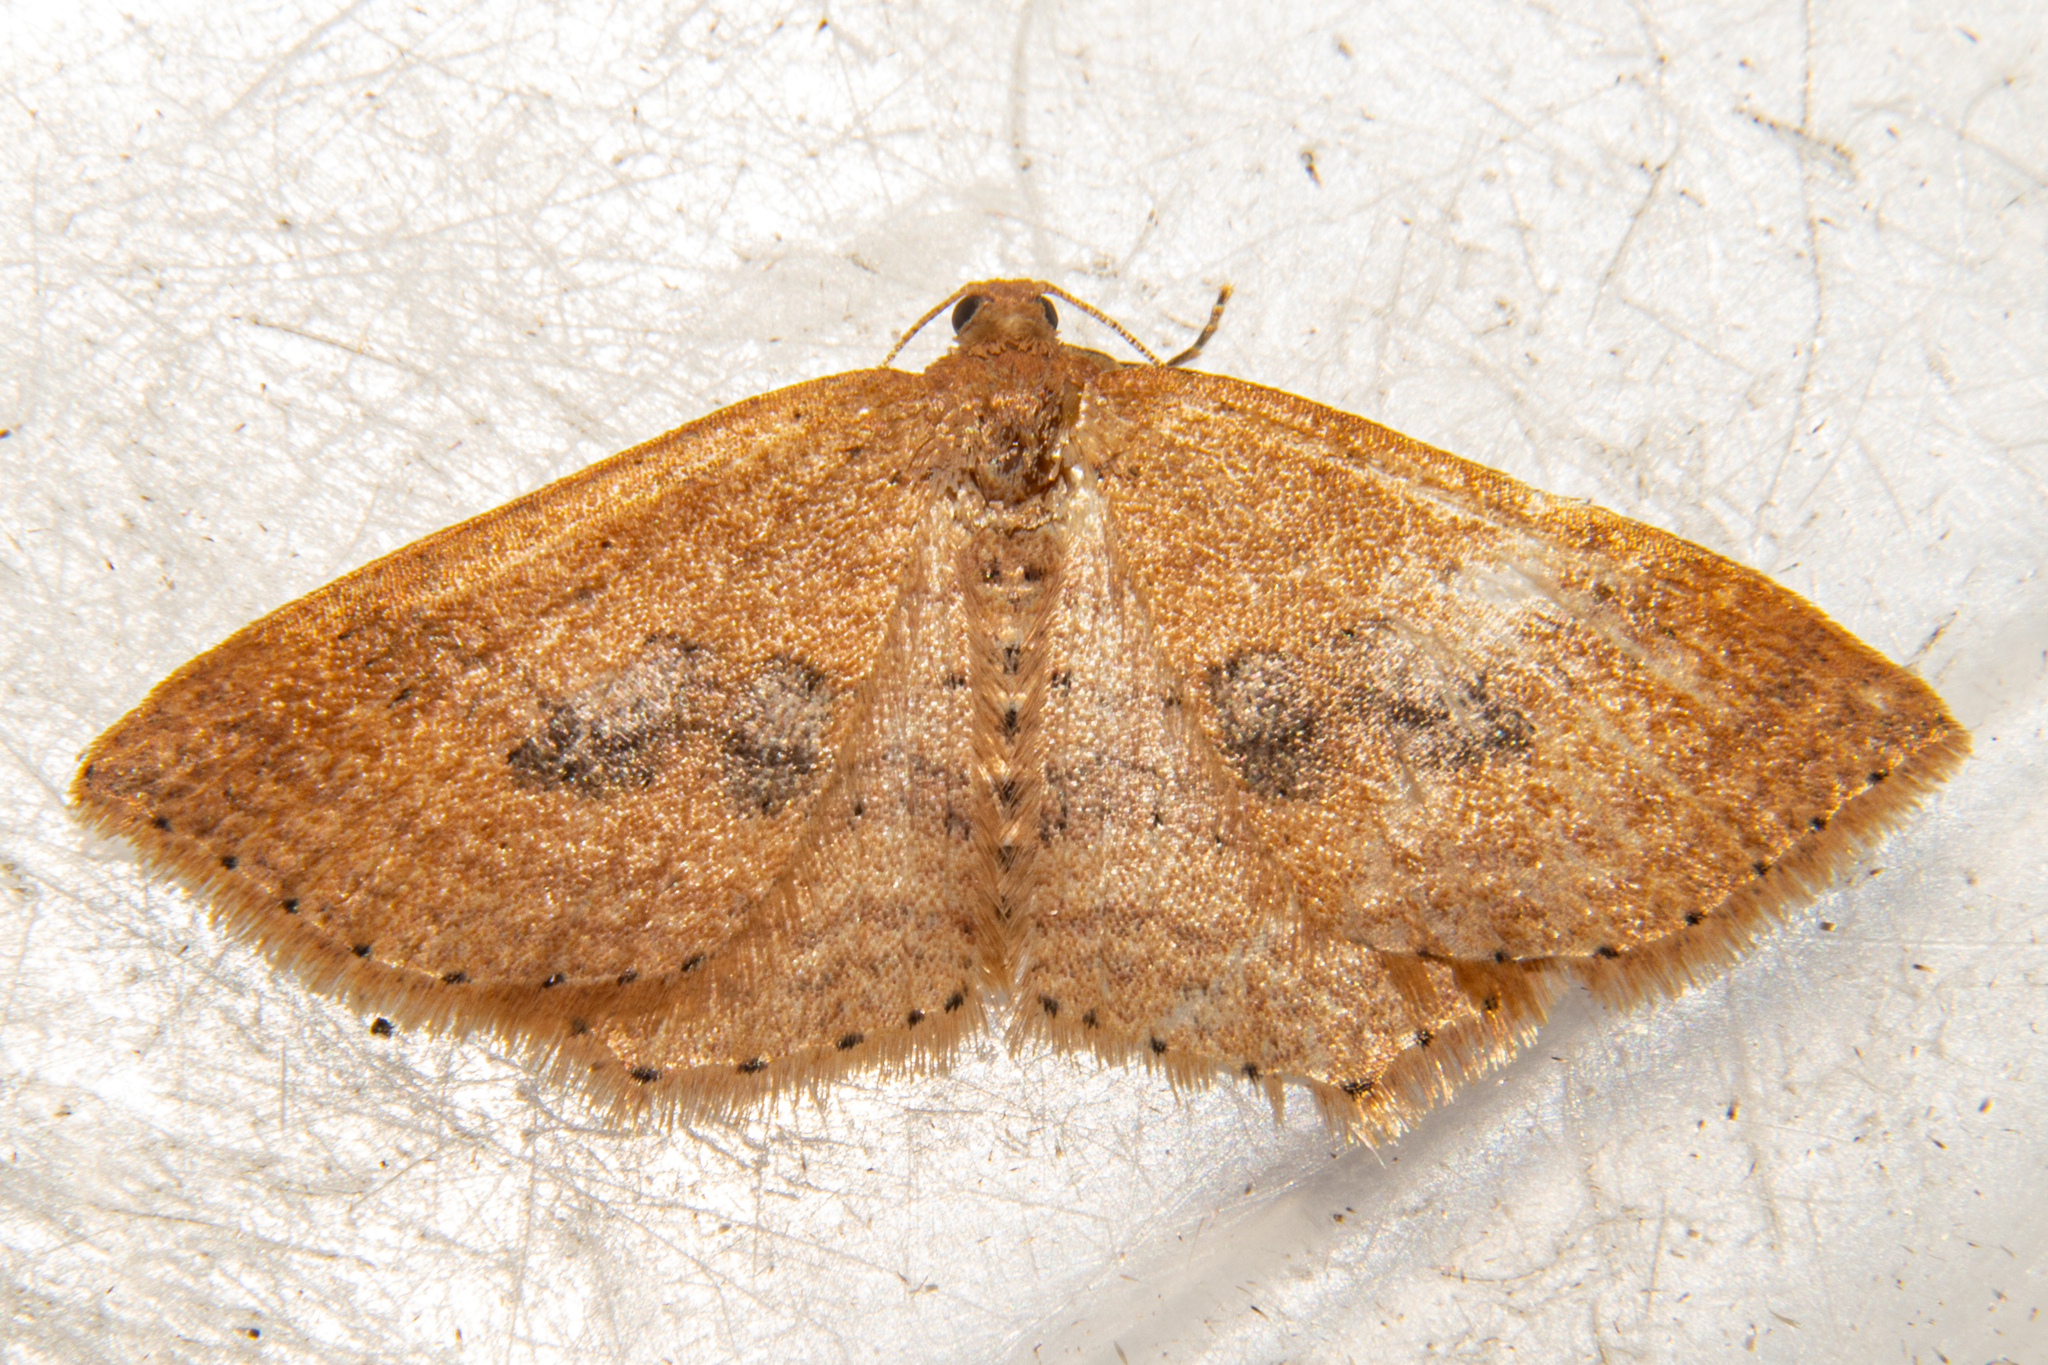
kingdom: Animalia
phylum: Arthropoda
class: Insecta
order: Lepidoptera
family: Geometridae
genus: Epicyme
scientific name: Epicyme rubropunctaria
